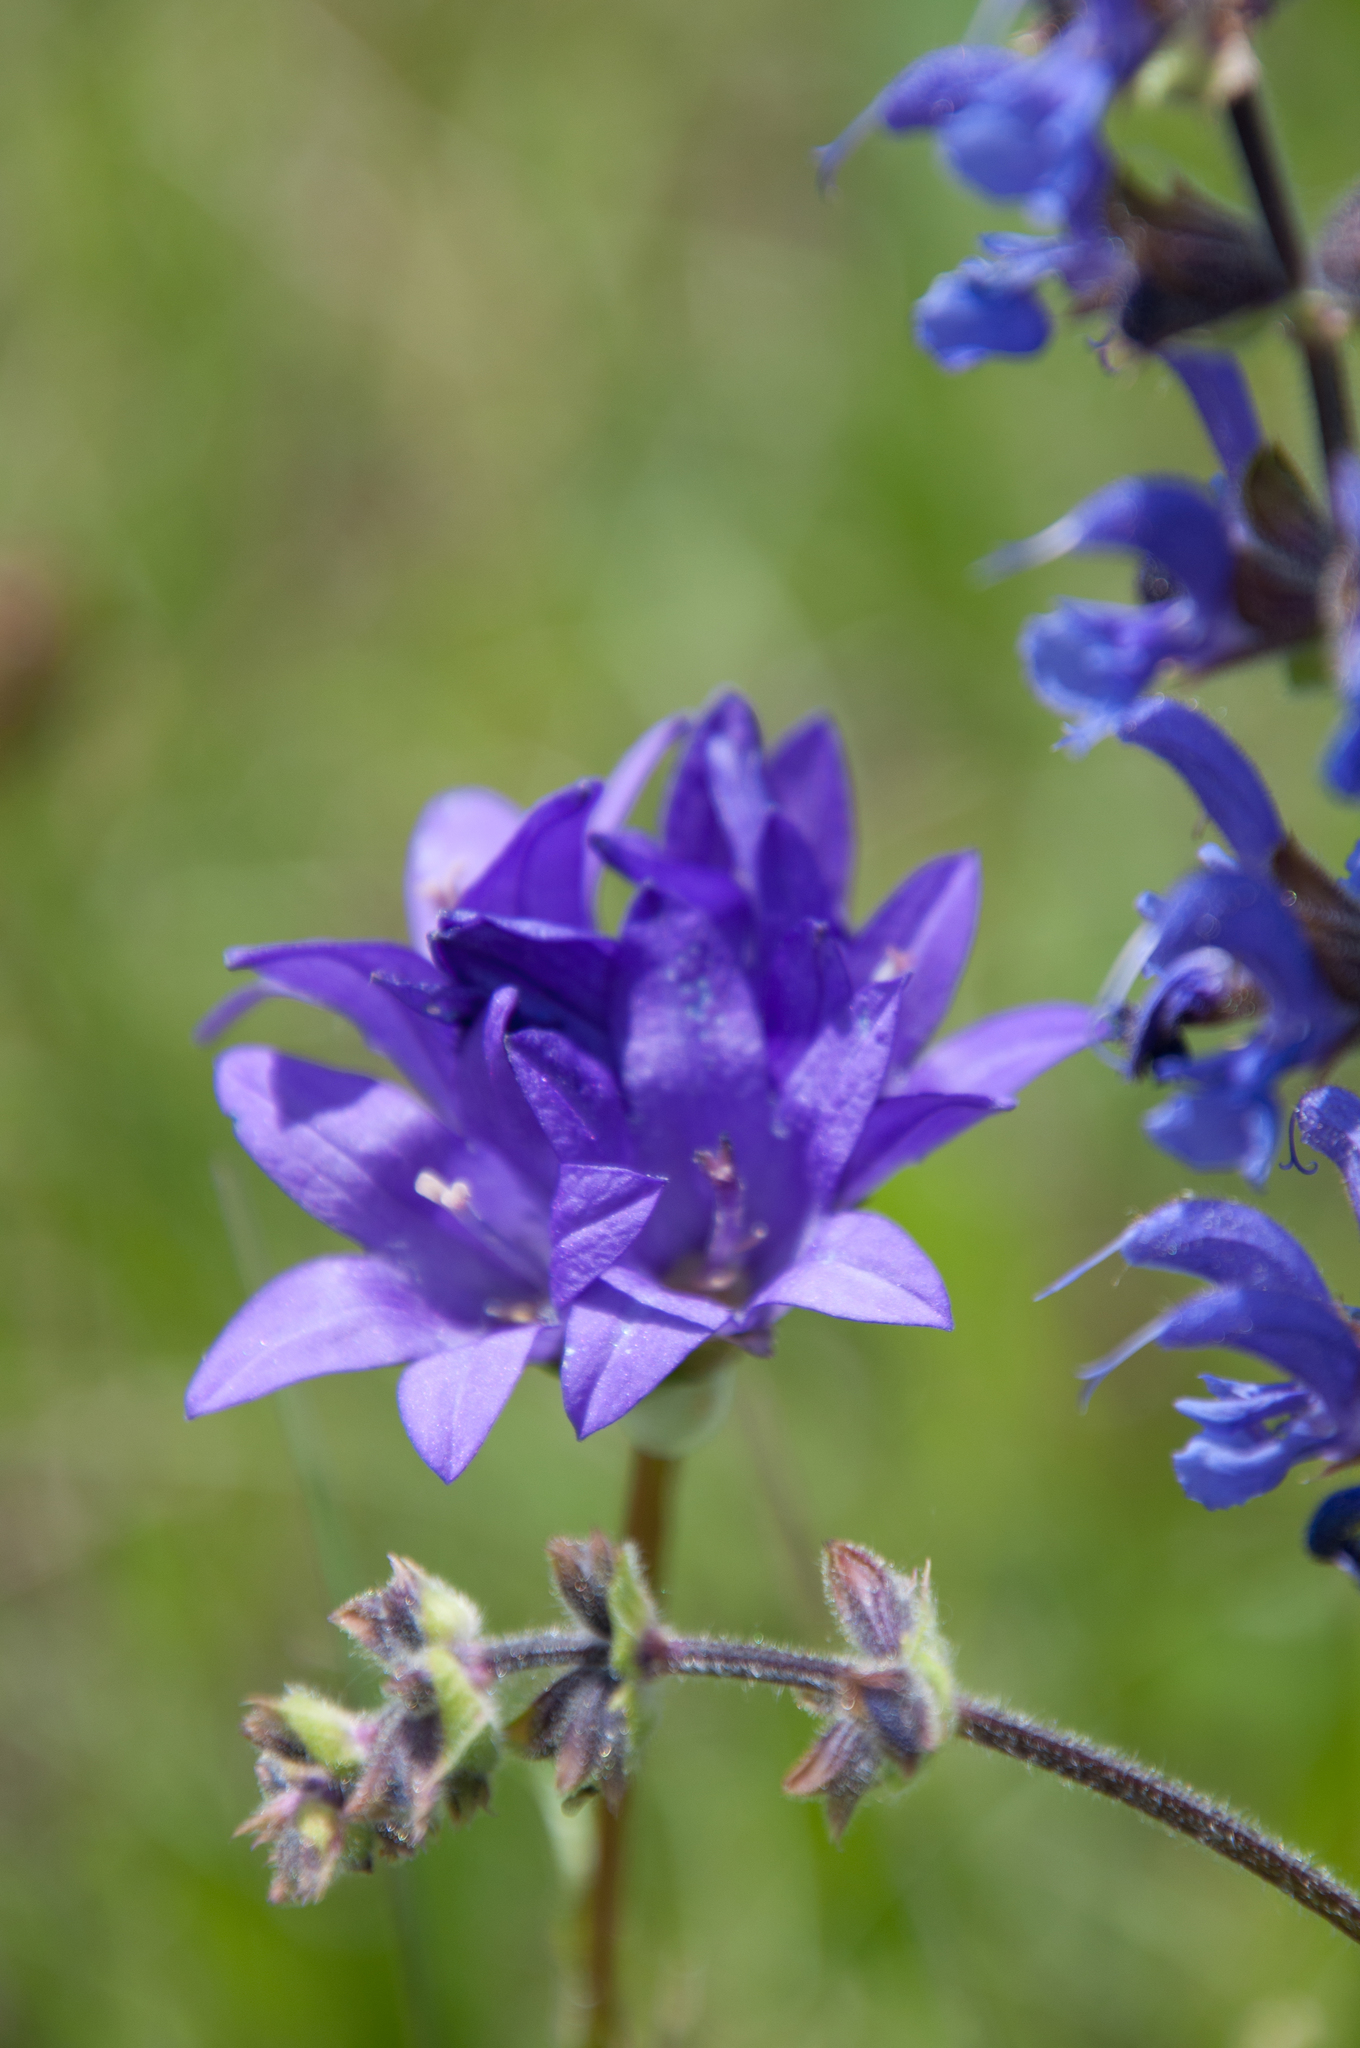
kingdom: Plantae
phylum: Tracheophyta
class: Magnoliopsida
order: Asterales
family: Campanulaceae
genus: Campanula
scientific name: Campanula glomerata
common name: Clustered bellflower
